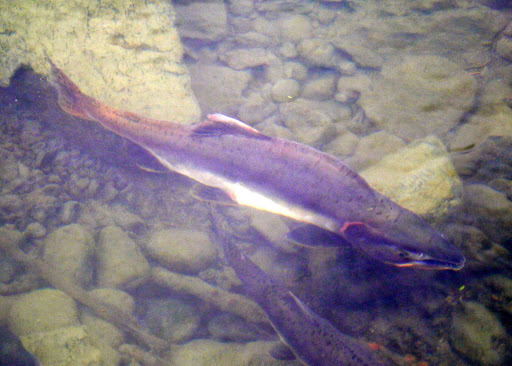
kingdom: Animalia
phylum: Chordata
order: Salmoniformes
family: Salmonidae
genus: Oncorhynchus
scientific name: Oncorhynchus gorbuscha
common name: Humpback salmon
